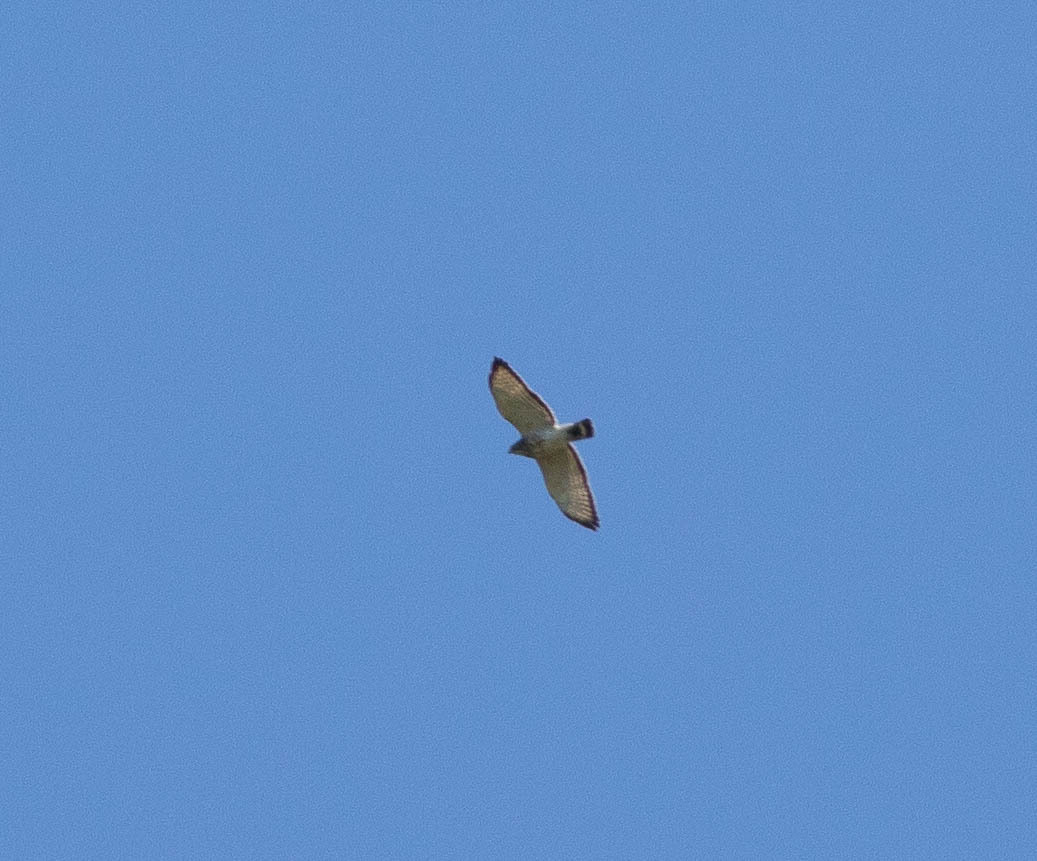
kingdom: Animalia
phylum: Chordata
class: Aves
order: Accipitriformes
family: Accipitridae
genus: Buteo
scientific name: Buteo platypterus
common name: Broad-winged hawk
